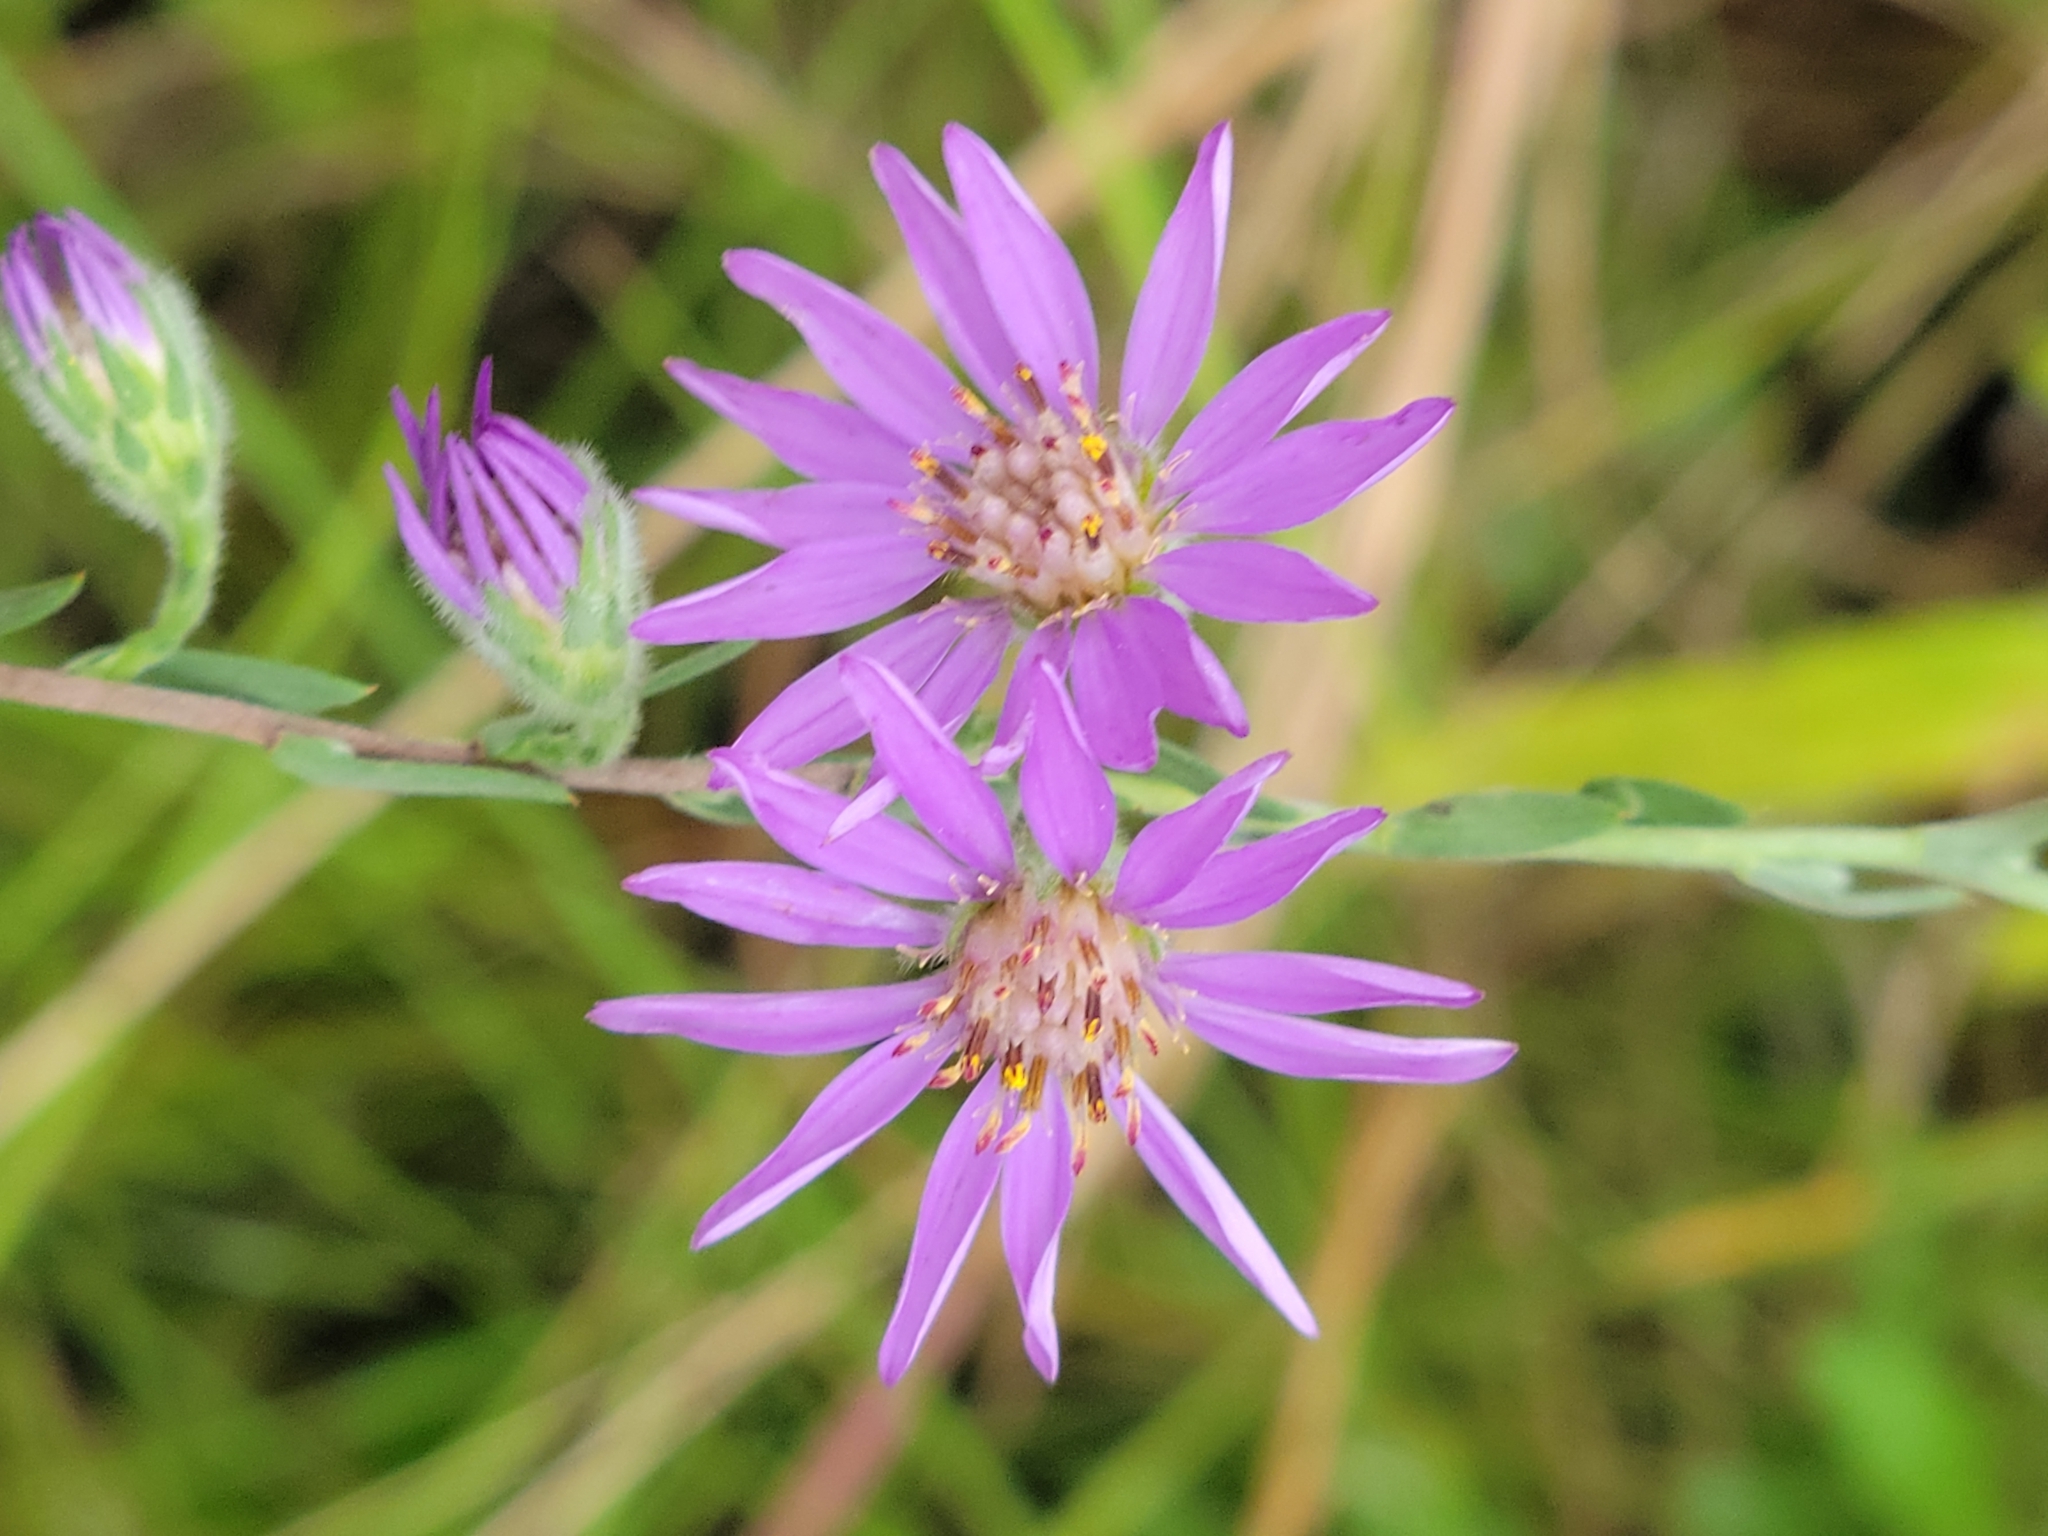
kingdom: Plantae
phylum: Tracheophyta
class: Magnoliopsida
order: Asterales
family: Asteraceae
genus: Symphyotrichum
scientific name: Symphyotrichum concolor
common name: Eastern silver aster
